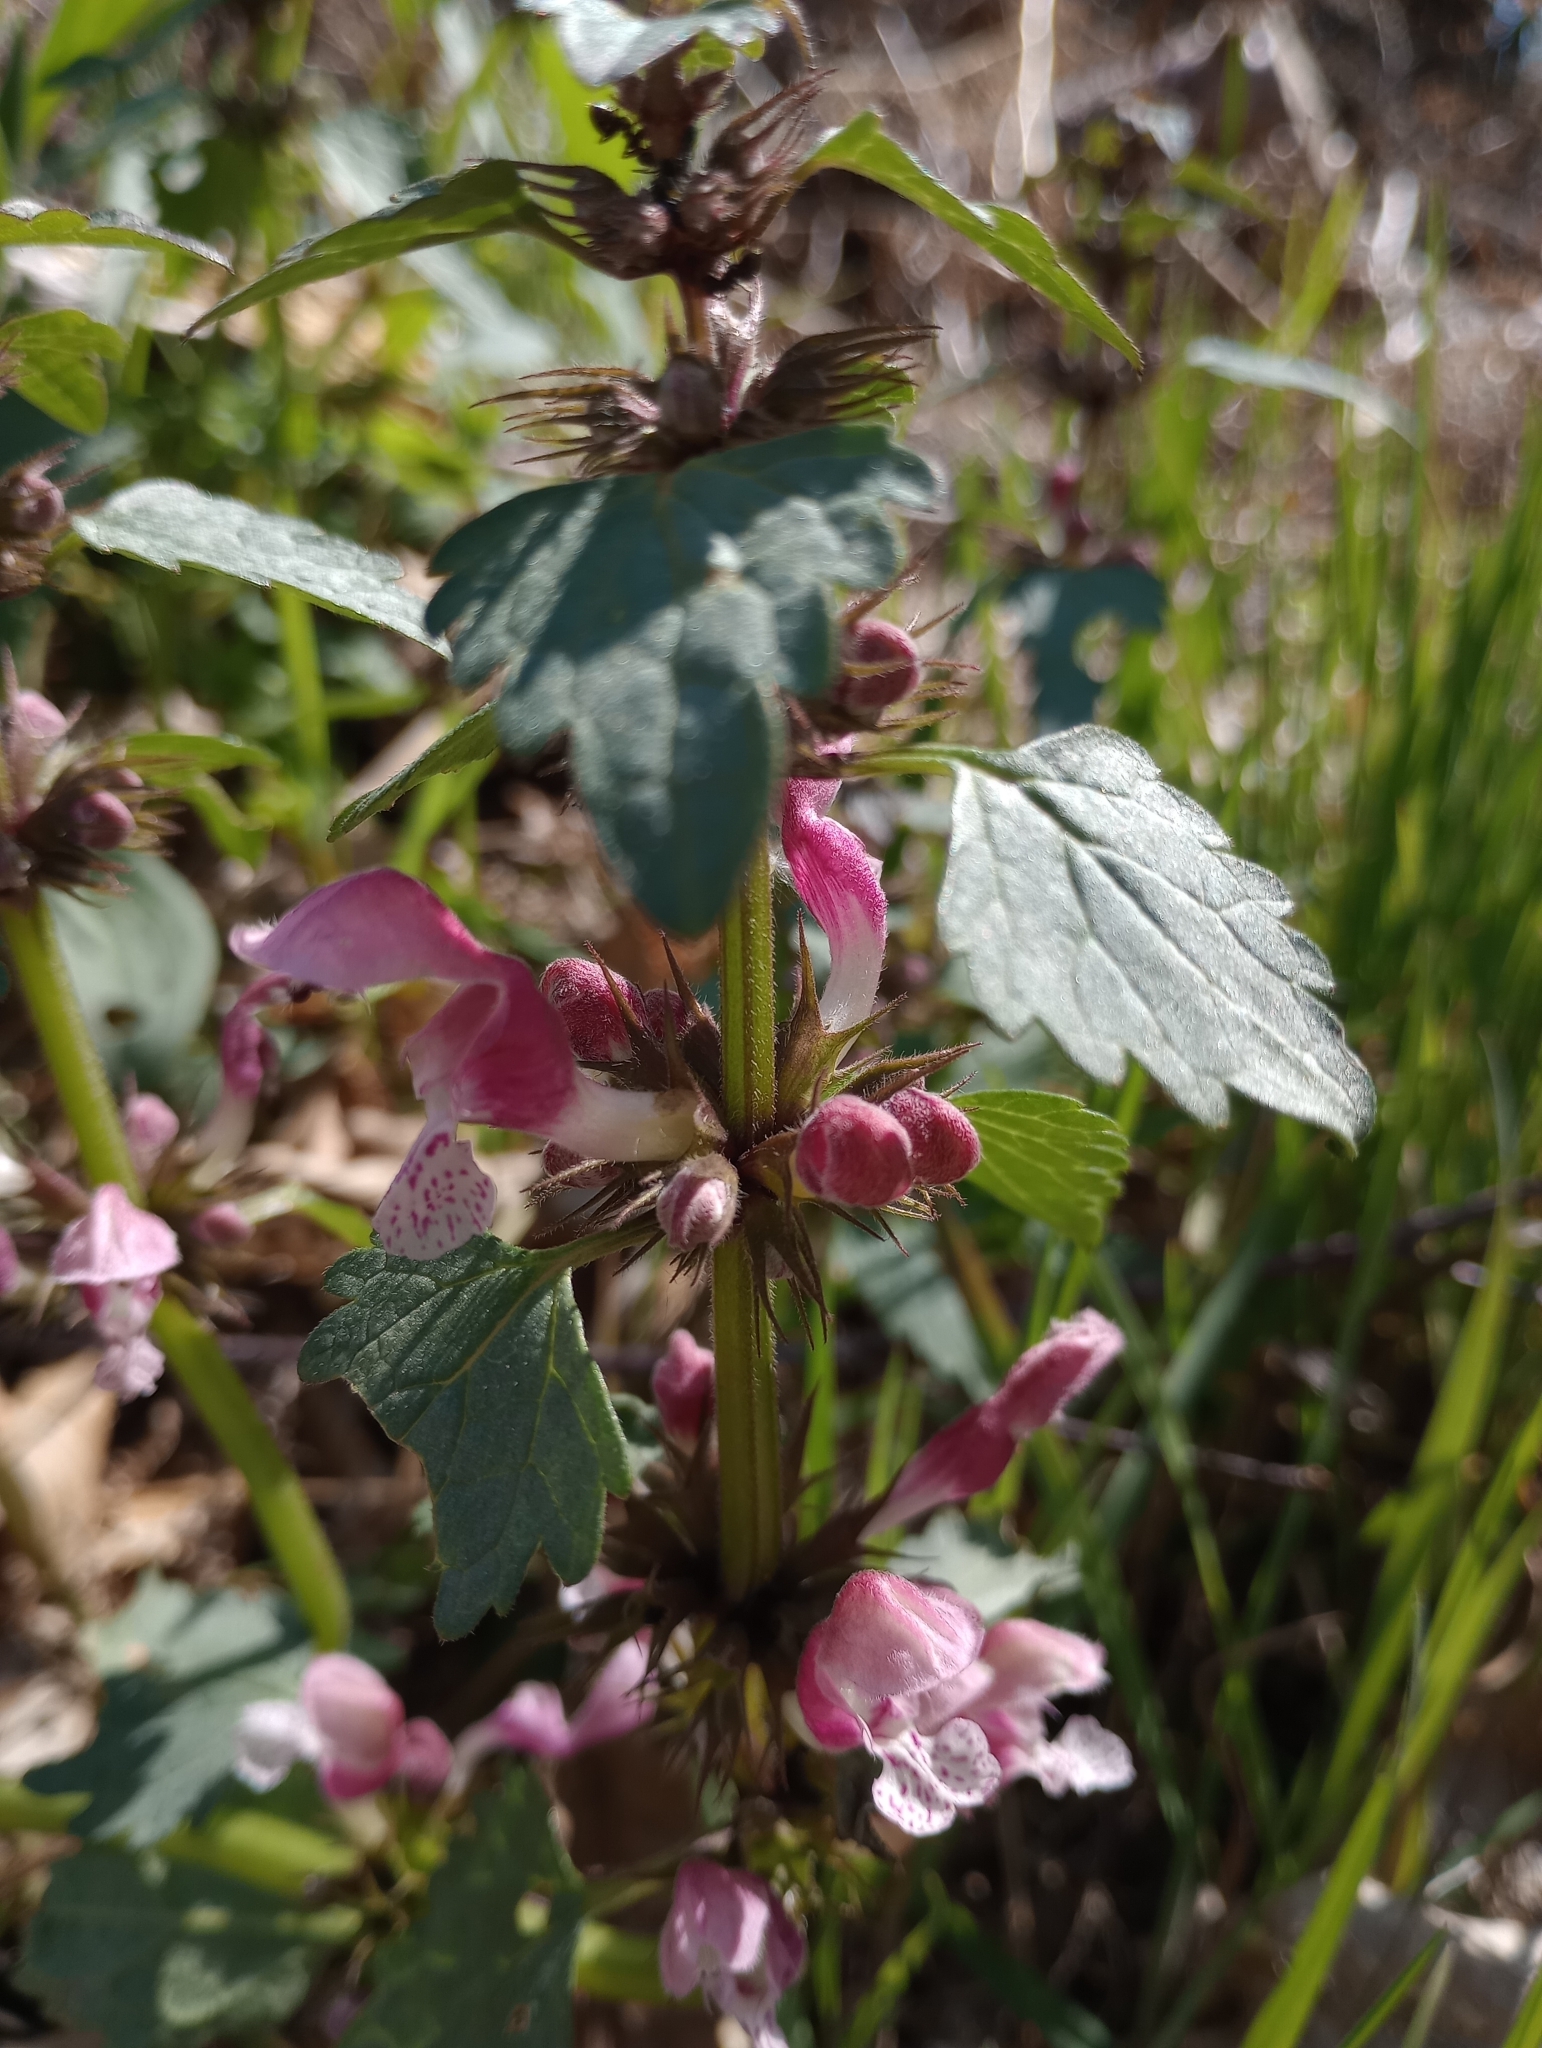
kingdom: Plantae
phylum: Tracheophyta
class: Magnoliopsida
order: Lamiales
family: Lamiaceae
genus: Lamium
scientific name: Lamium maculatum
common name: Spotted dead-nettle
